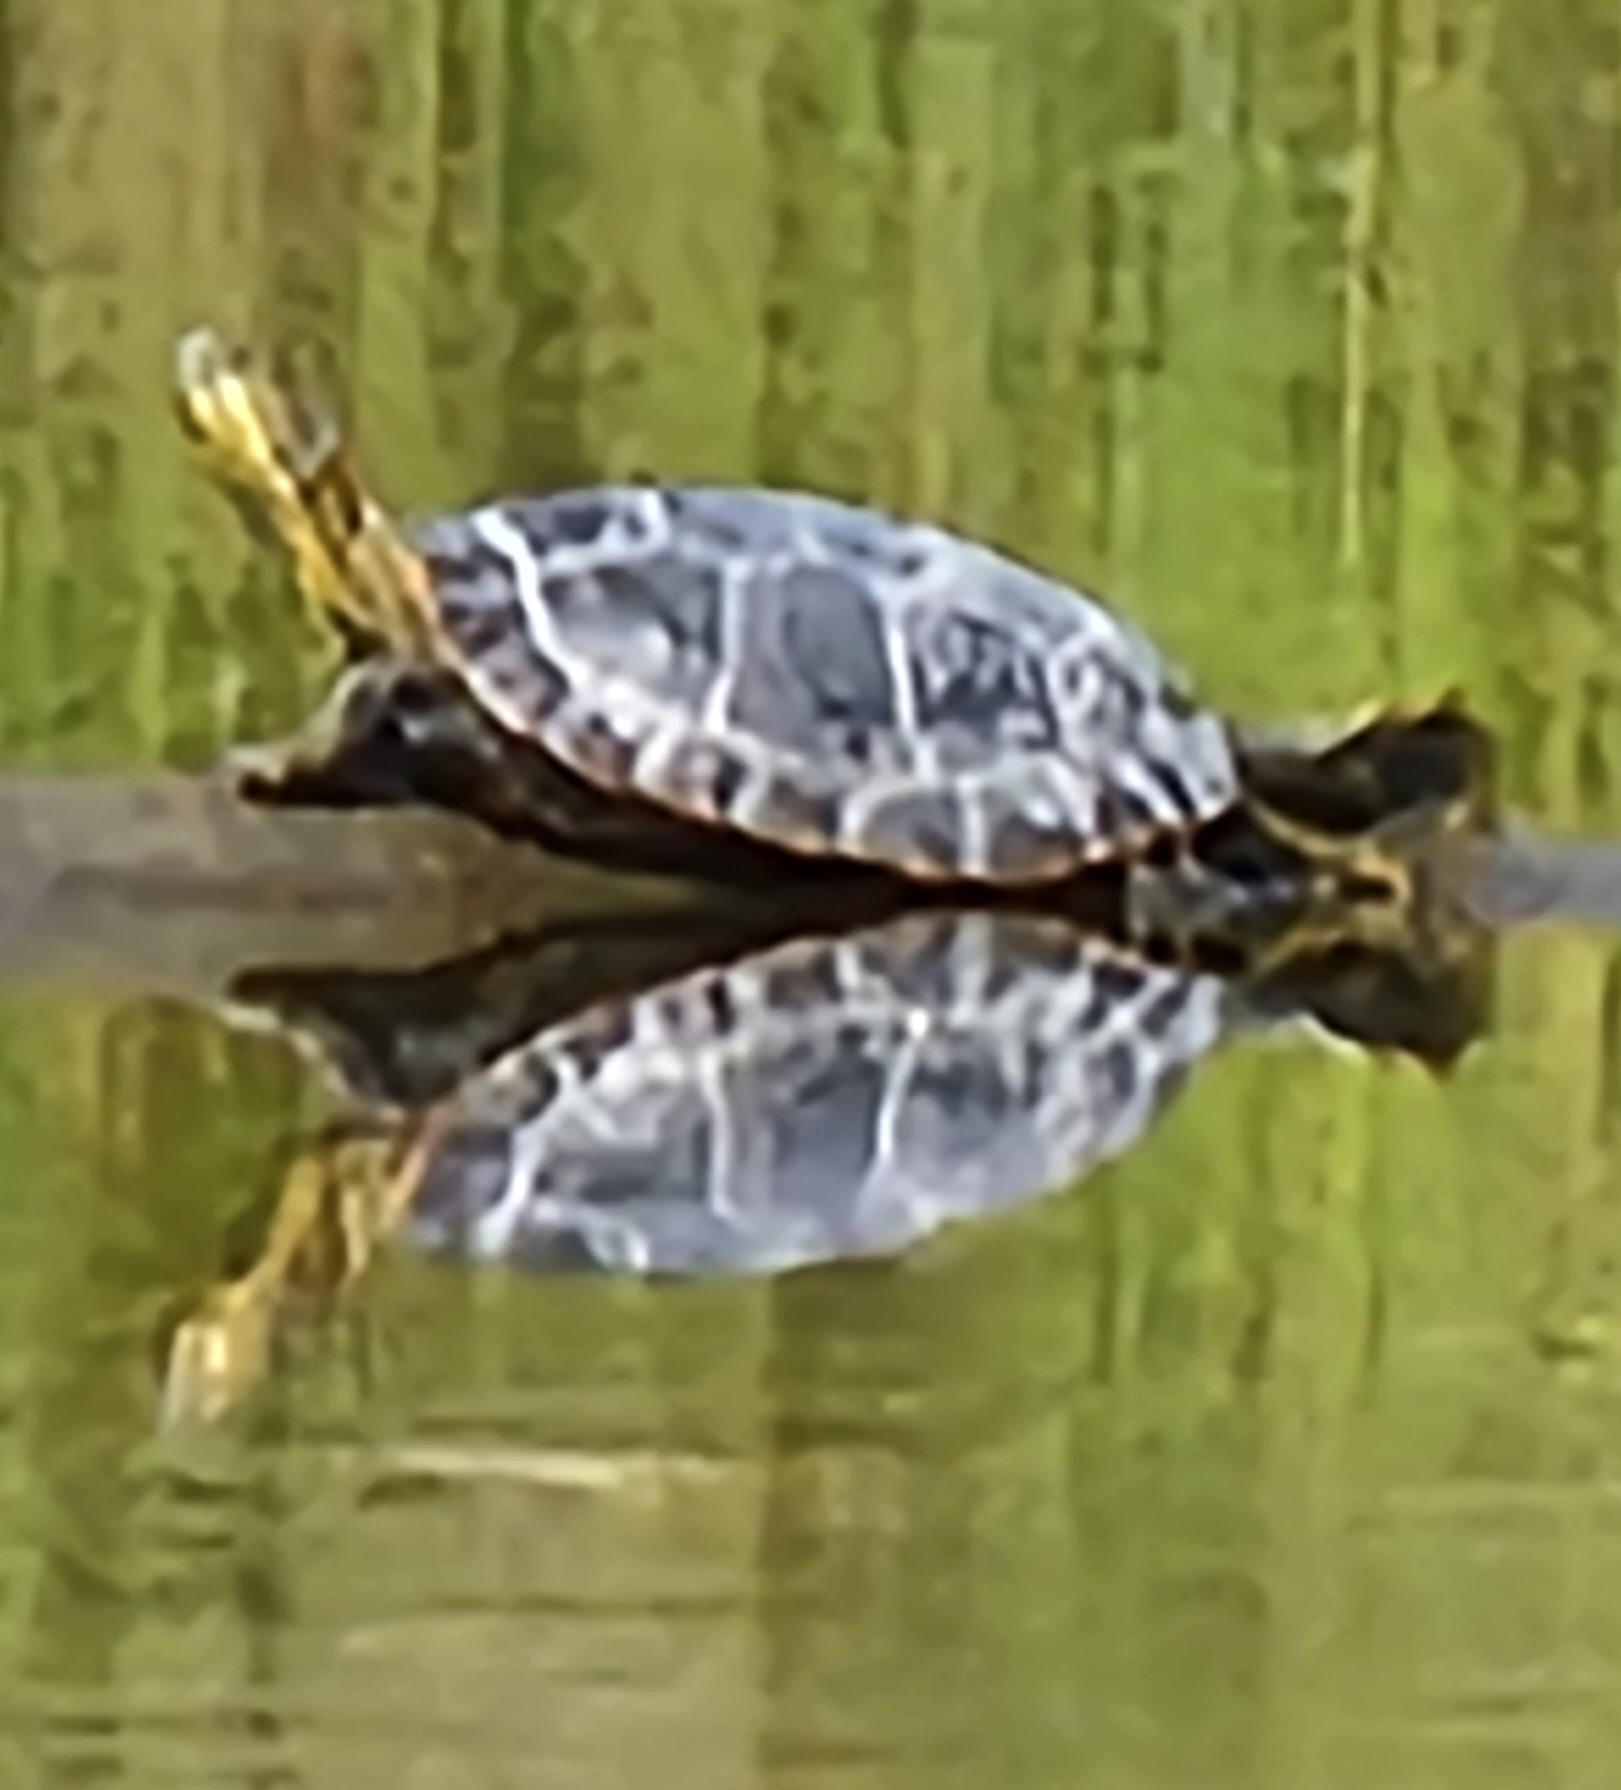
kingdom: Animalia
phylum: Chordata
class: Testudines
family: Emydidae
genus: Chrysemys
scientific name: Chrysemys picta
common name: Painted turtle
